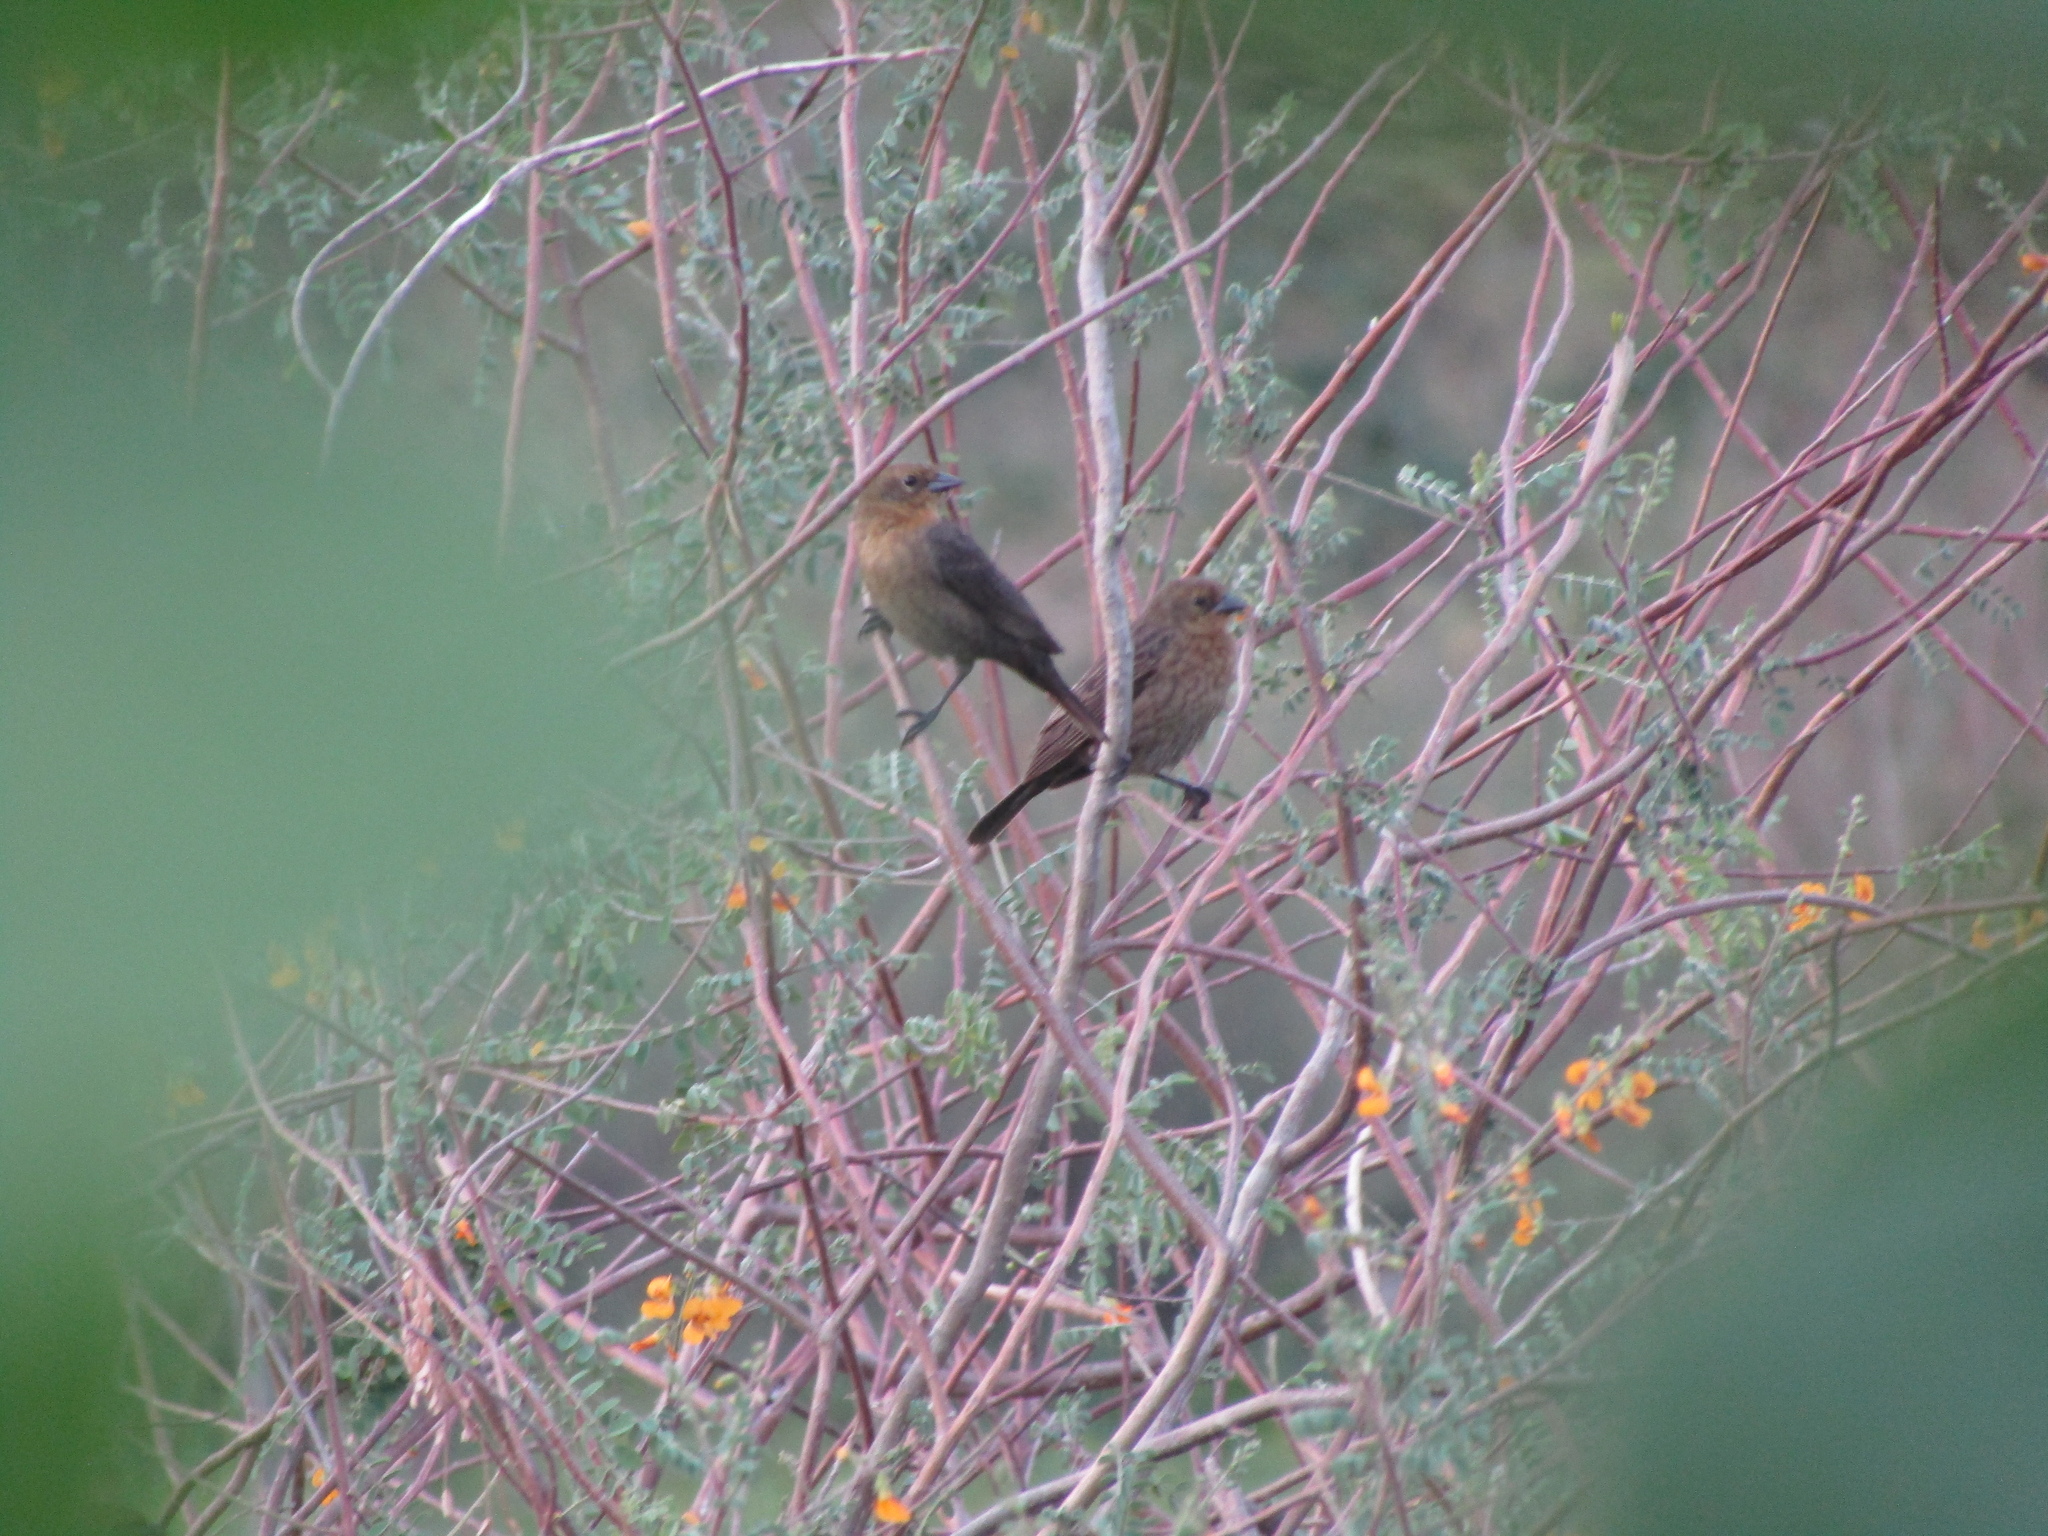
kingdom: Animalia
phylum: Chordata
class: Aves
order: Passeriformes
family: Icteridae
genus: Chrysomus
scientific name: Chrysomus ruficapillus
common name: Chestnut-capped blackbird
